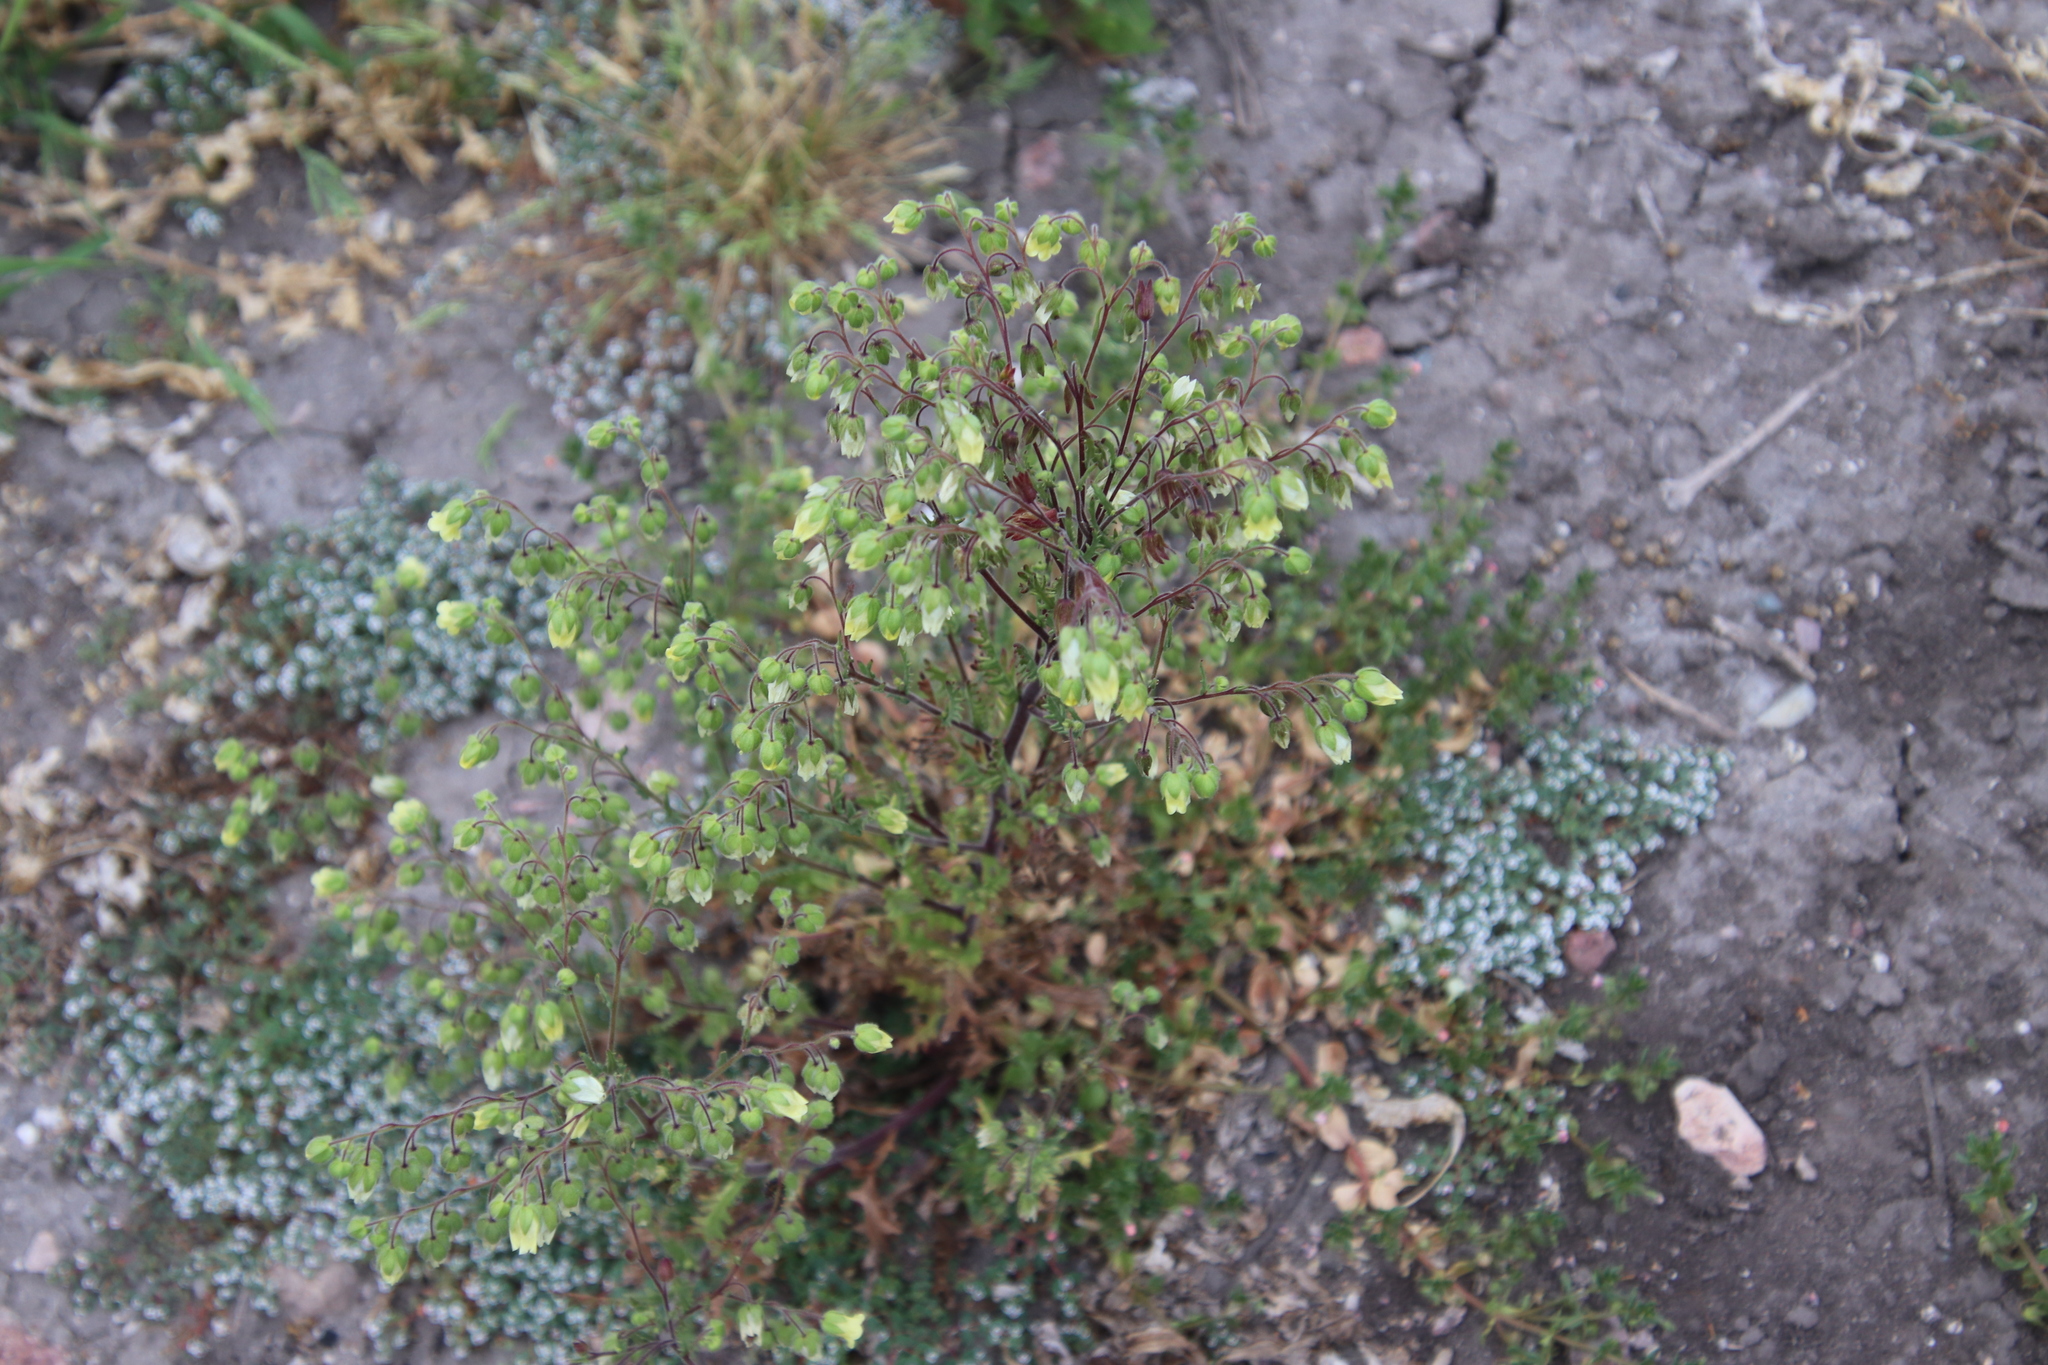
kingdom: Plantae
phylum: Tracheophyta
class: Magnoliopsida
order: Boraginales
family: Hydrophyllaceae
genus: Emmenanthe
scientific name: Emmenanthe penduliflora
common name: Whispering-bells
